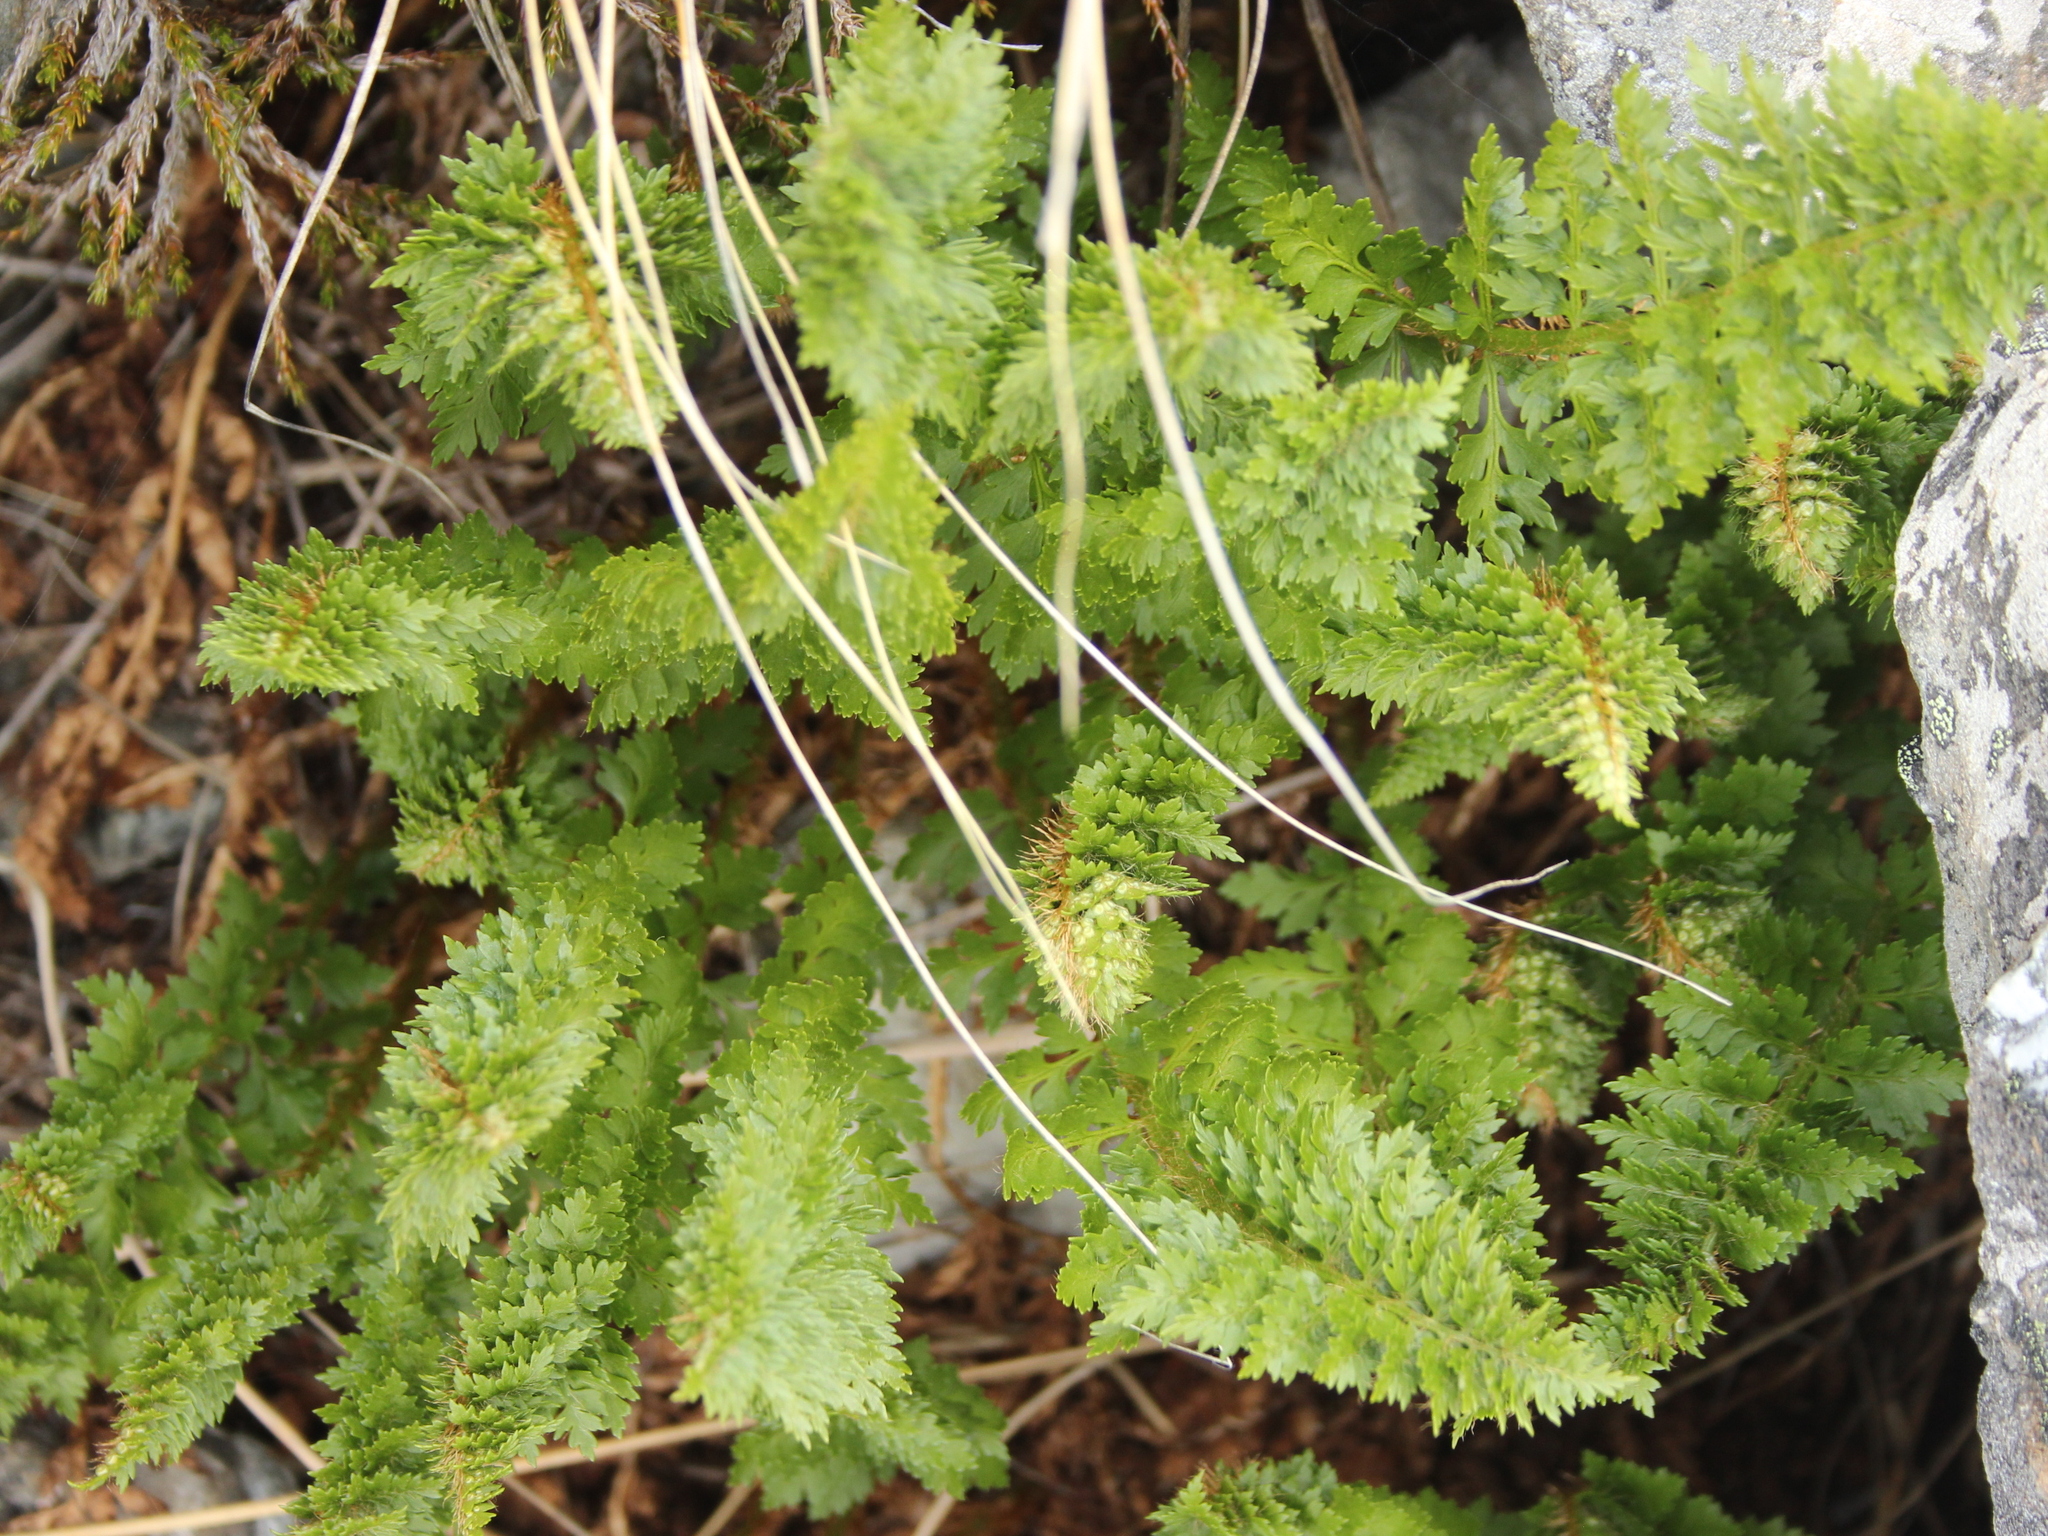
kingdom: Plantae
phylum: Tracheophyta
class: Polypodiopsida
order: Polypodiales
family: Dryopteridaceae
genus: Polystichum
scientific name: Polystichum cystostegia
